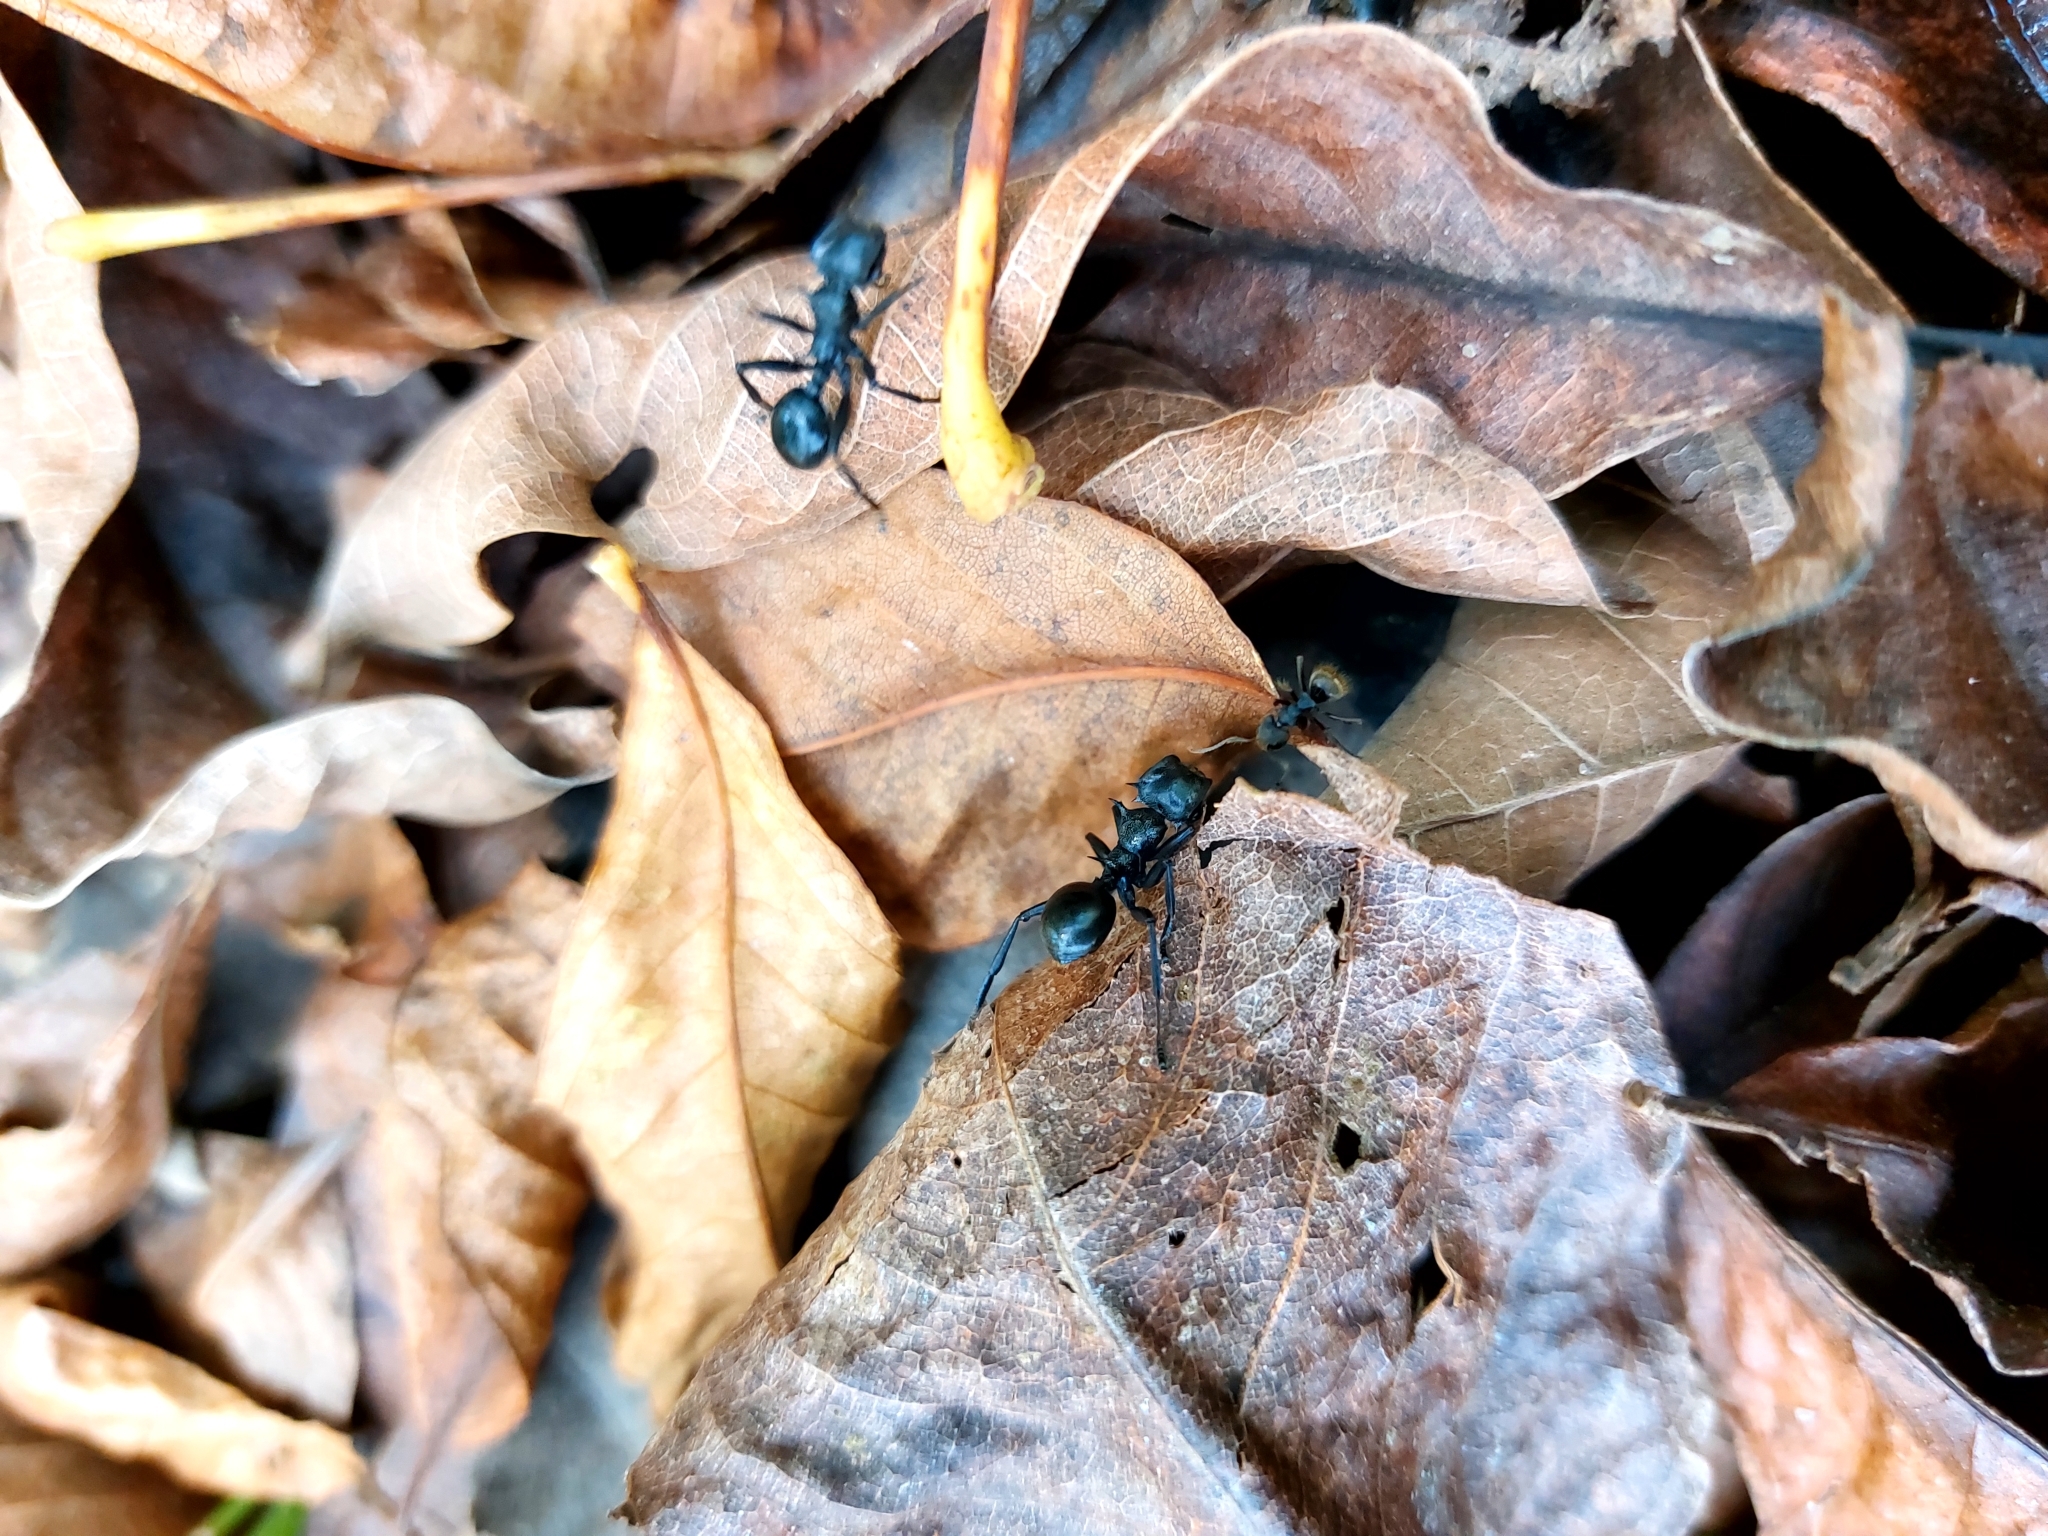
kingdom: Animalia
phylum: Arthropoda
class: Insecta
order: Hymenoptera
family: Formicidae
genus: Cephalotes
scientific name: Cephalotes atratus
